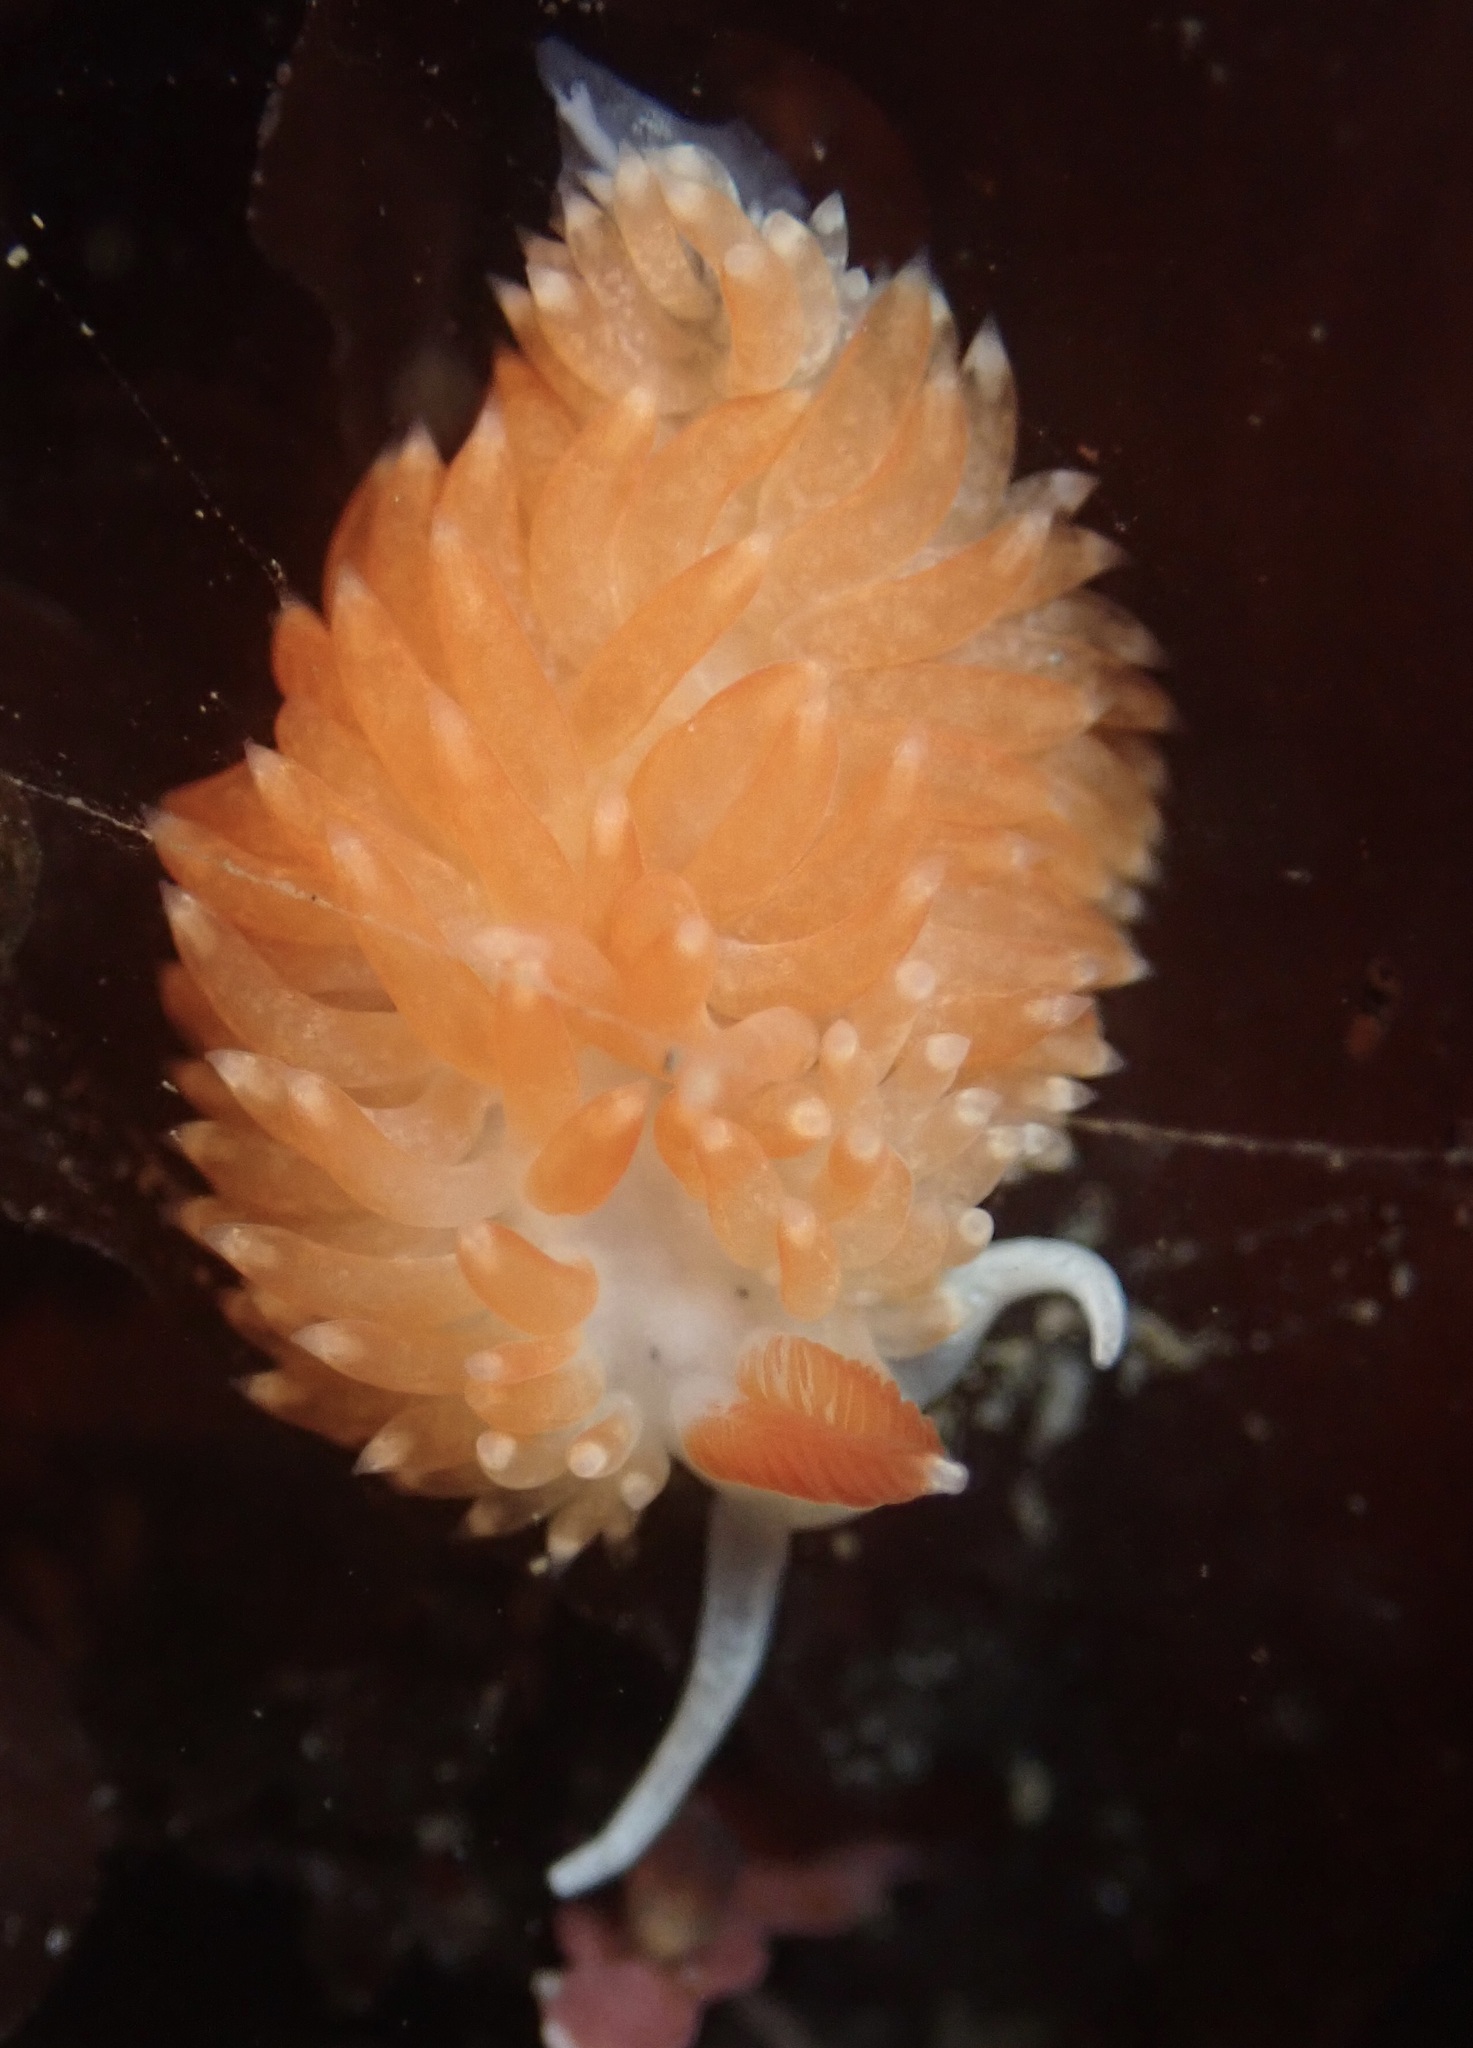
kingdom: Animalia
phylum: Mollusca
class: Gastropoda
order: Nudibranchia
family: Aeolidiidae
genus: Anteaeolidiella
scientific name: Anteaeolidiella oliviae
